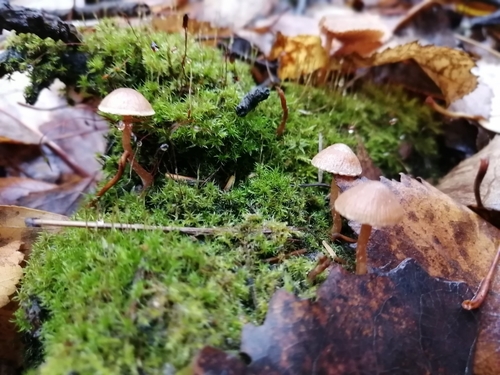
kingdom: Fungi
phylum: Basidiomycota
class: Agaricomycetes
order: Agaricales
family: Tubariaceae
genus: Tubaria
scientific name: Tubaria furfuracea
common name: Scurfy twiglet
